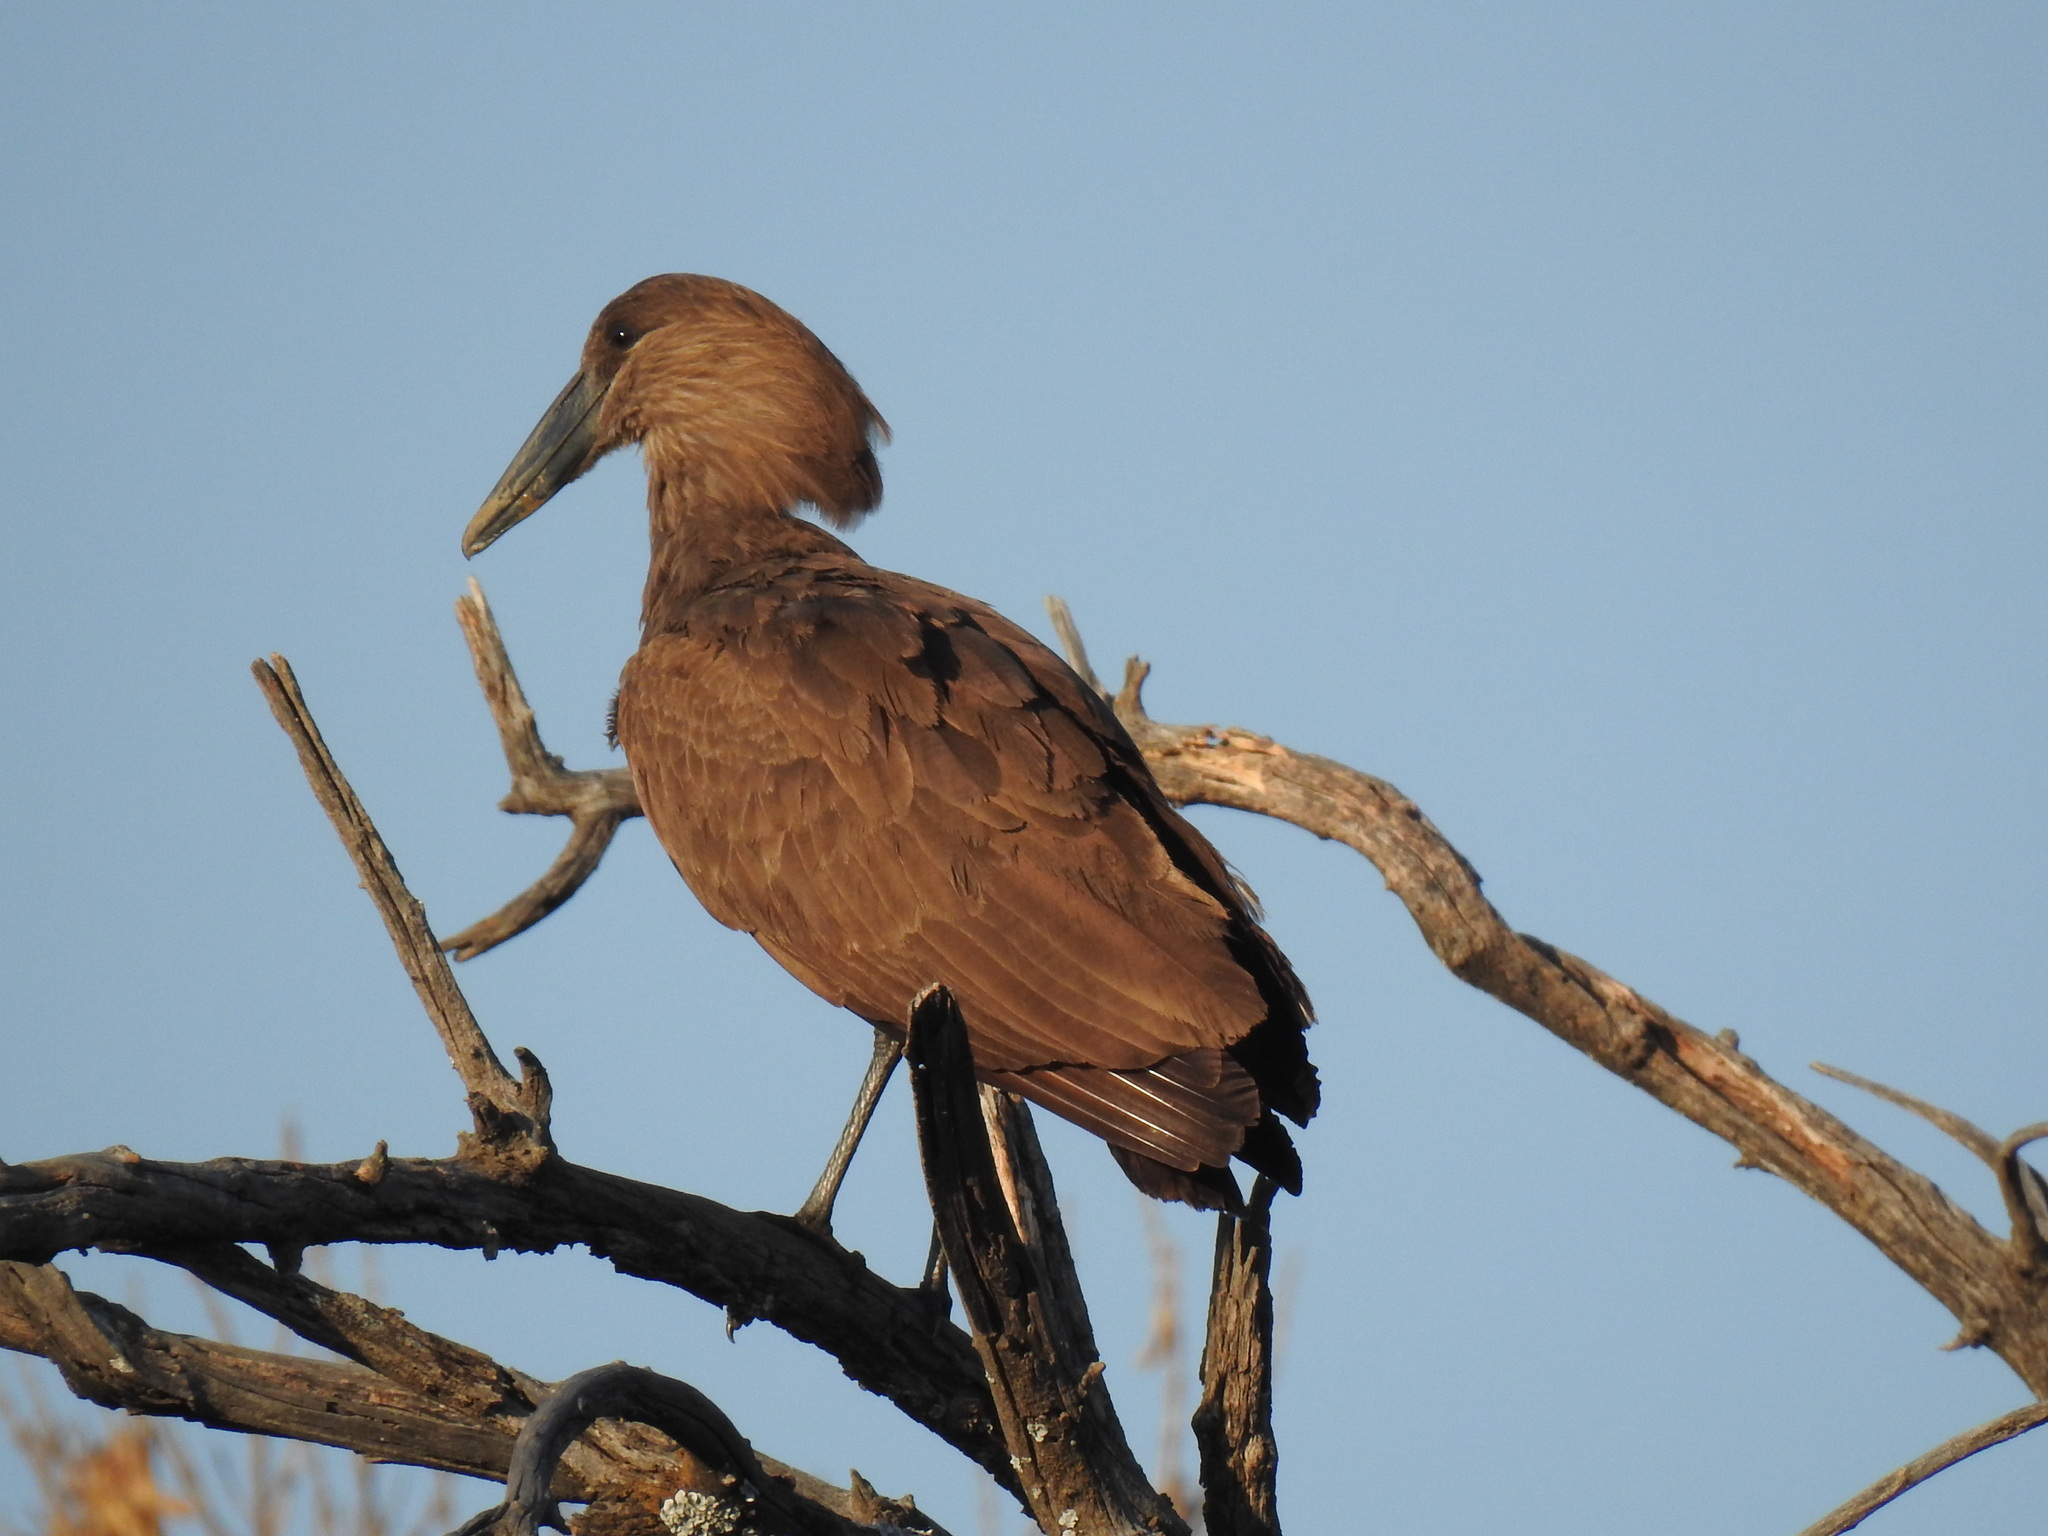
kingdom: Animalia
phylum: Chordata
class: Aves
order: Pelecaniformes
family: Scopidae
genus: Scopus
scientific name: Scopus umbretta
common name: Hamerkop
